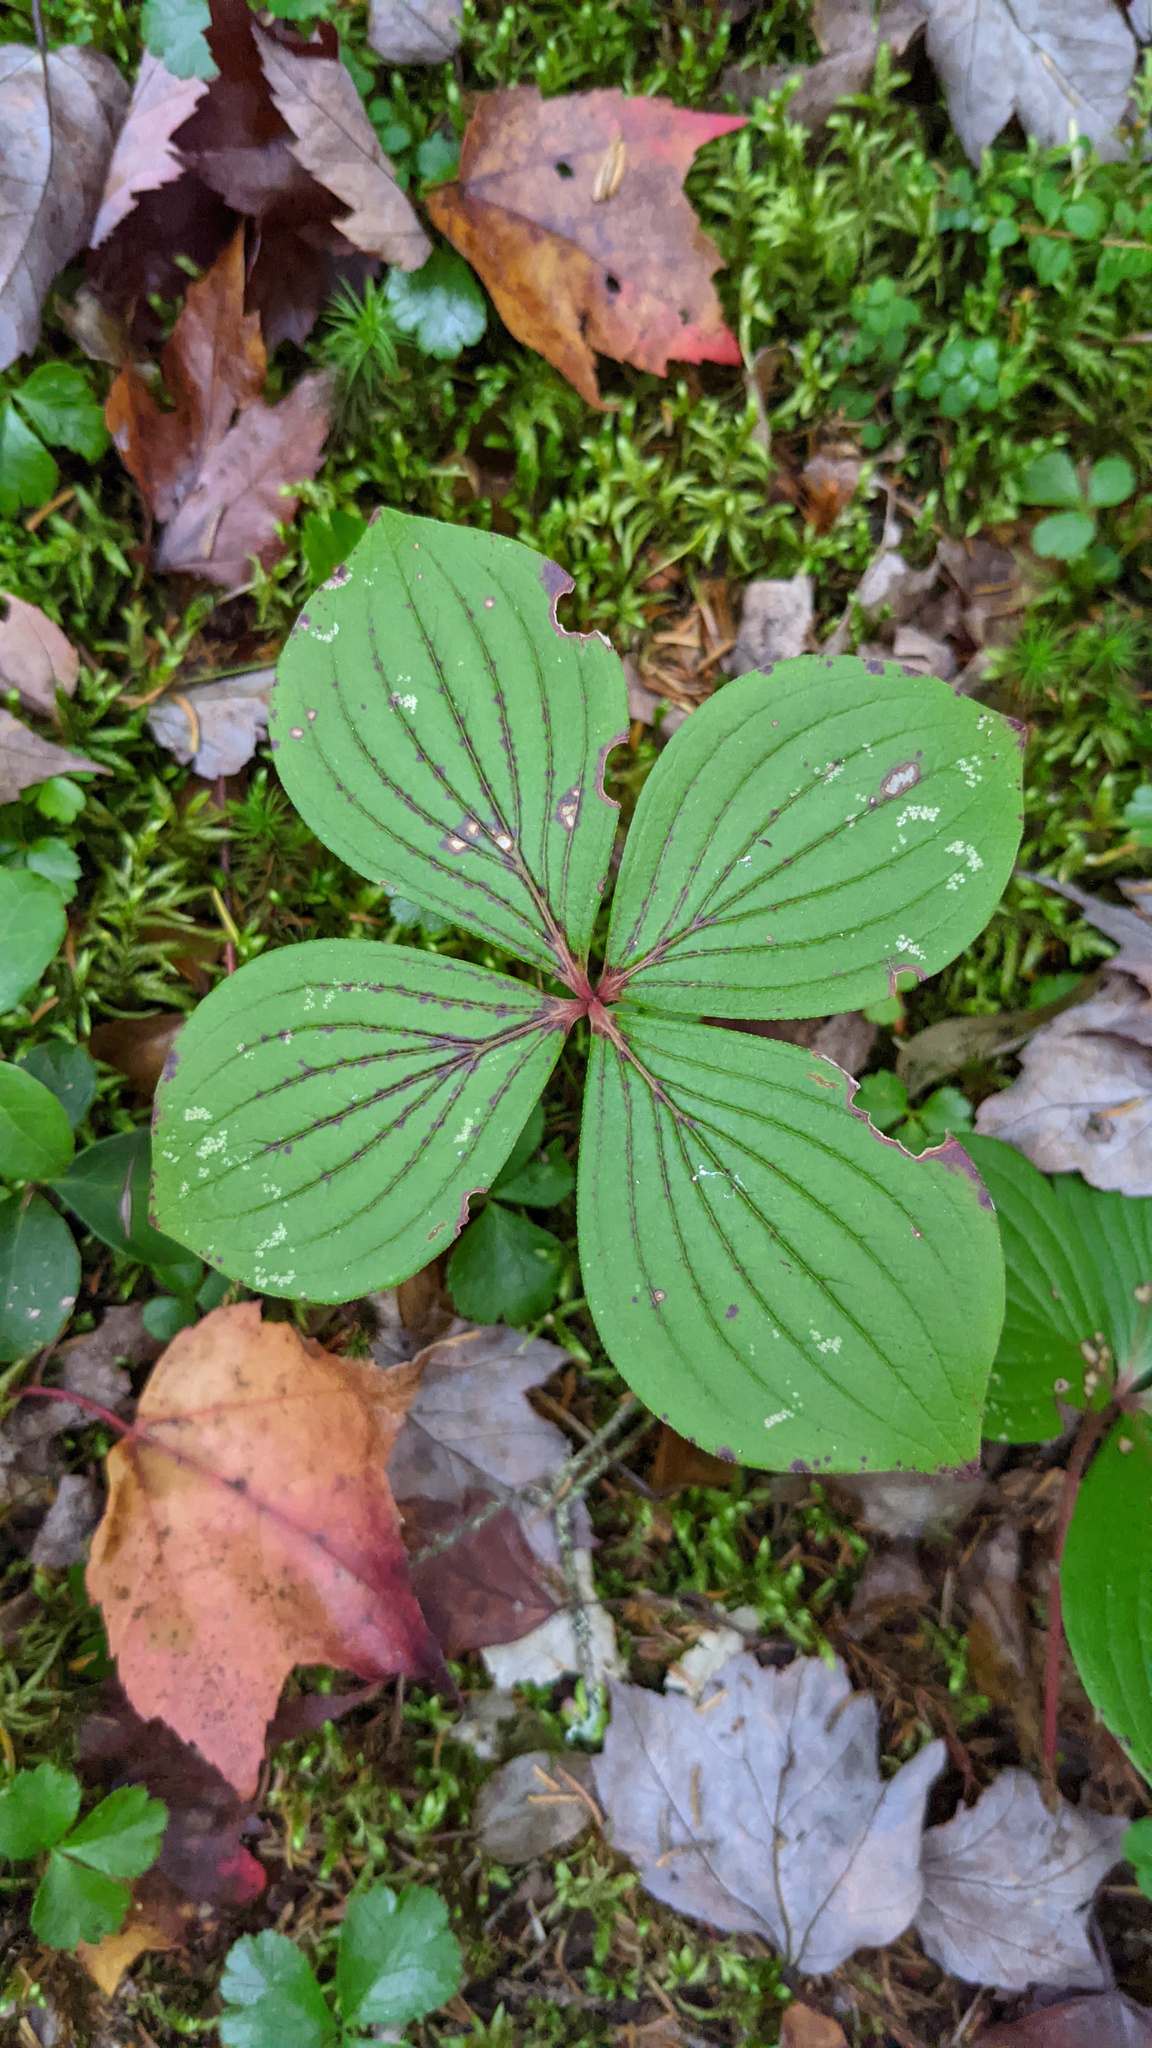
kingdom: Plantae
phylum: Tracheophyta
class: Magnoliopsida
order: Cornales
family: Cornaceae
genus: Cornus
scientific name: Cornus canadensis
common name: Creeping dogwood
